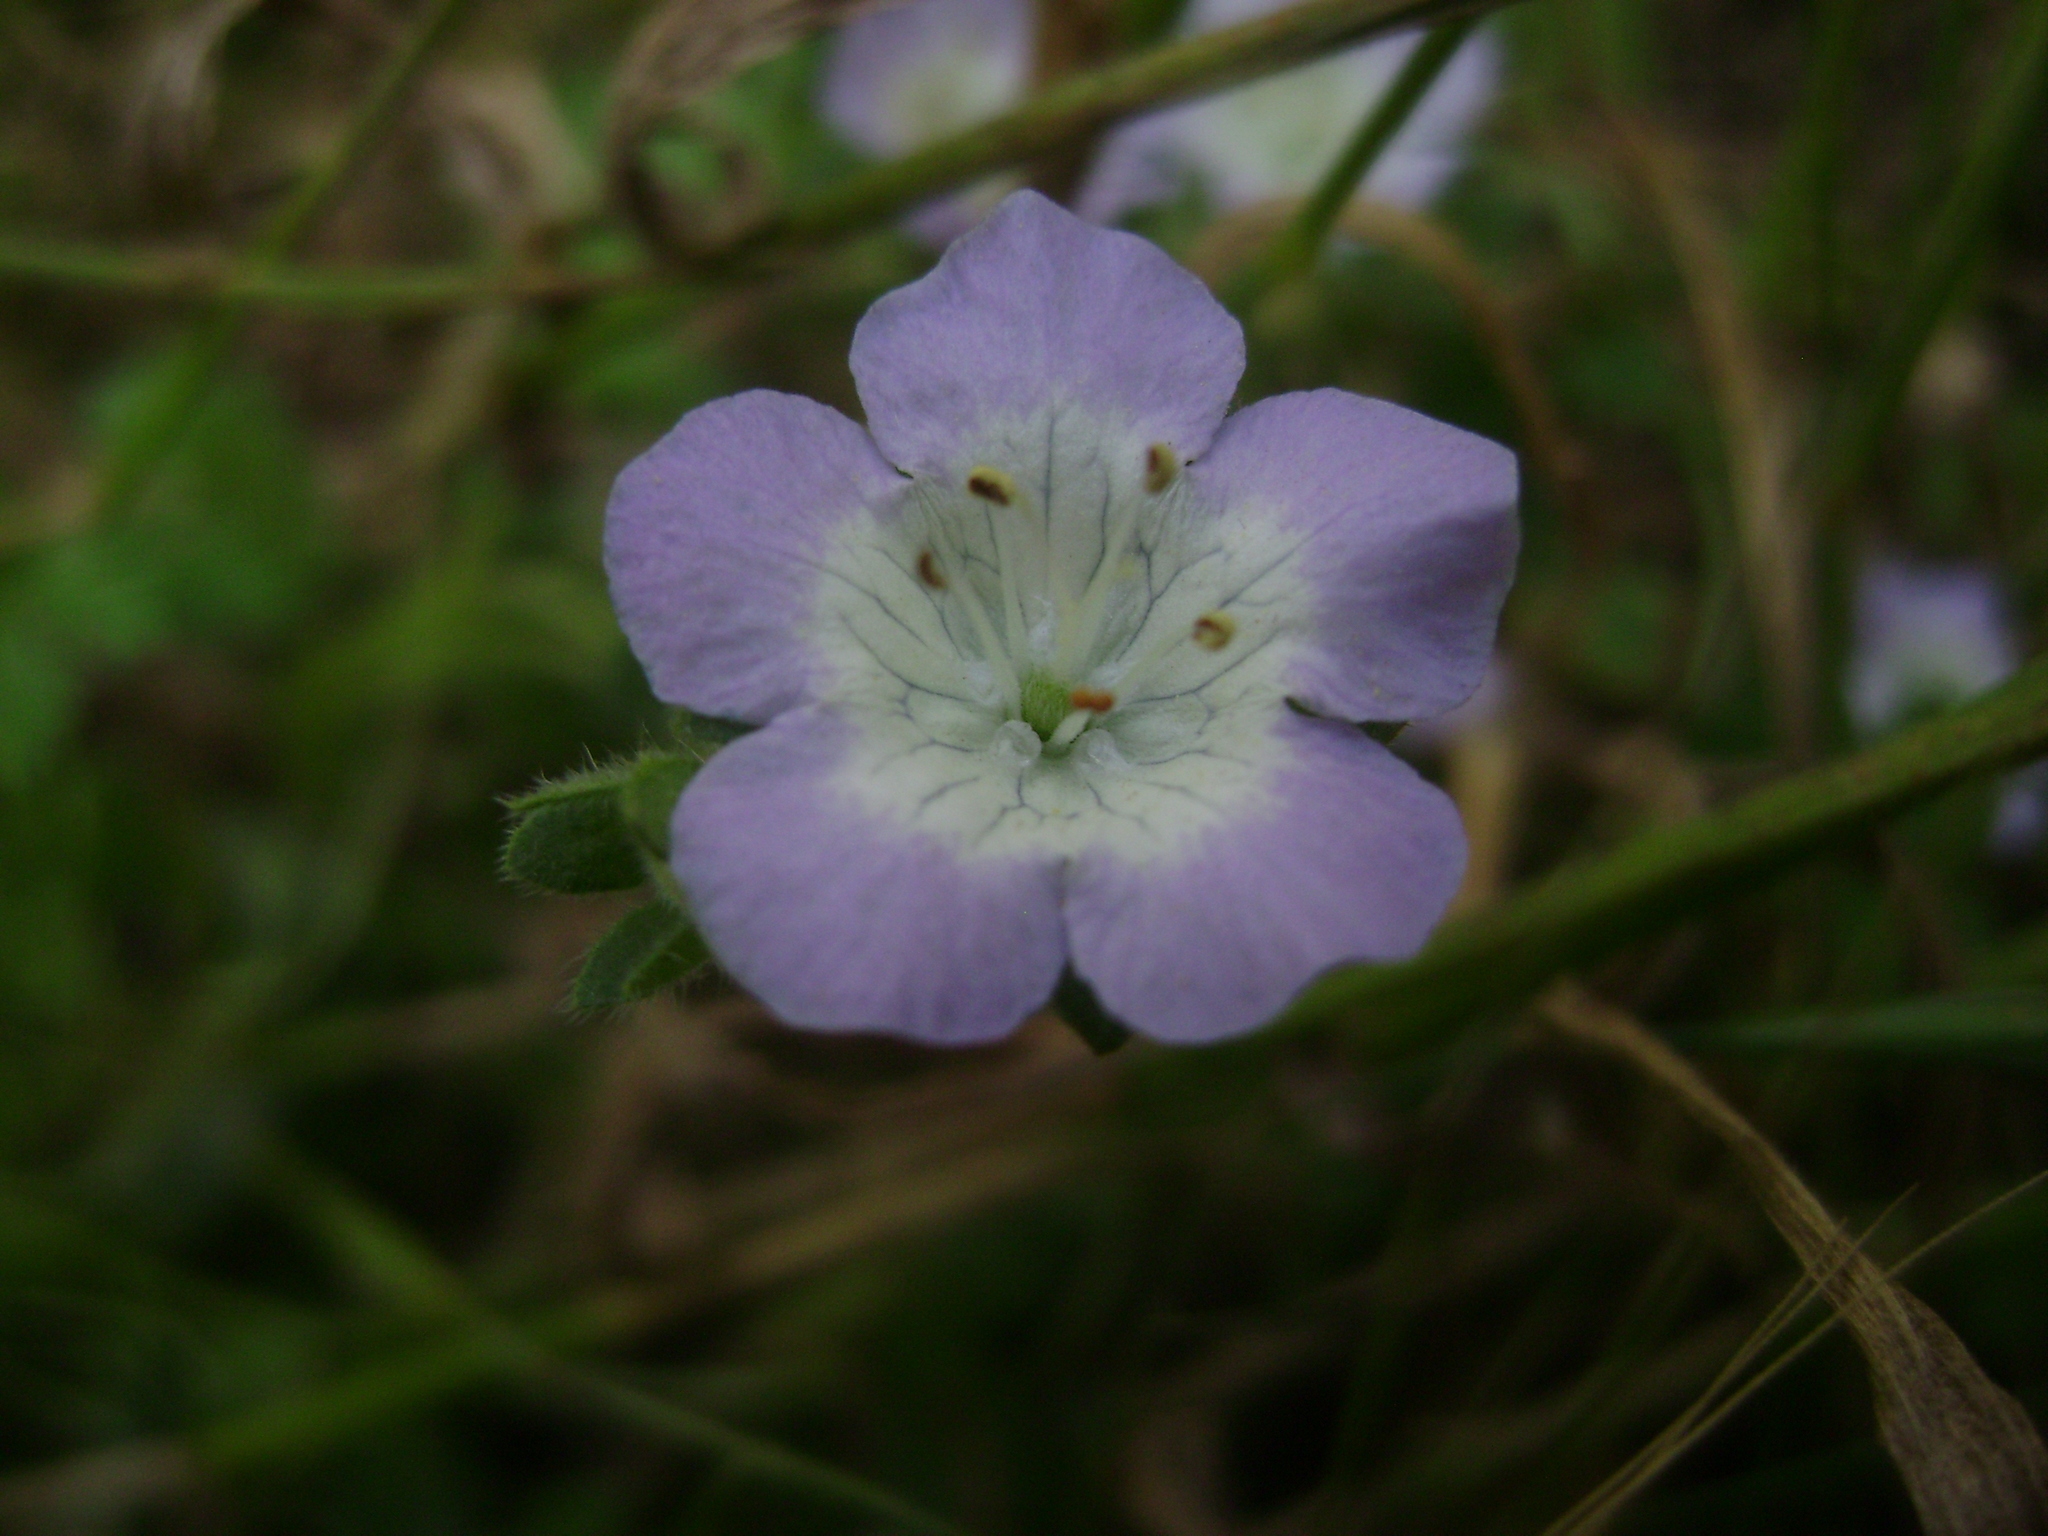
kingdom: Plantae
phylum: Tracheophyta
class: Magnoliopsida
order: Boraginales
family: Hydrophyllaceae
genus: Phacelia
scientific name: Phacelia insularis
